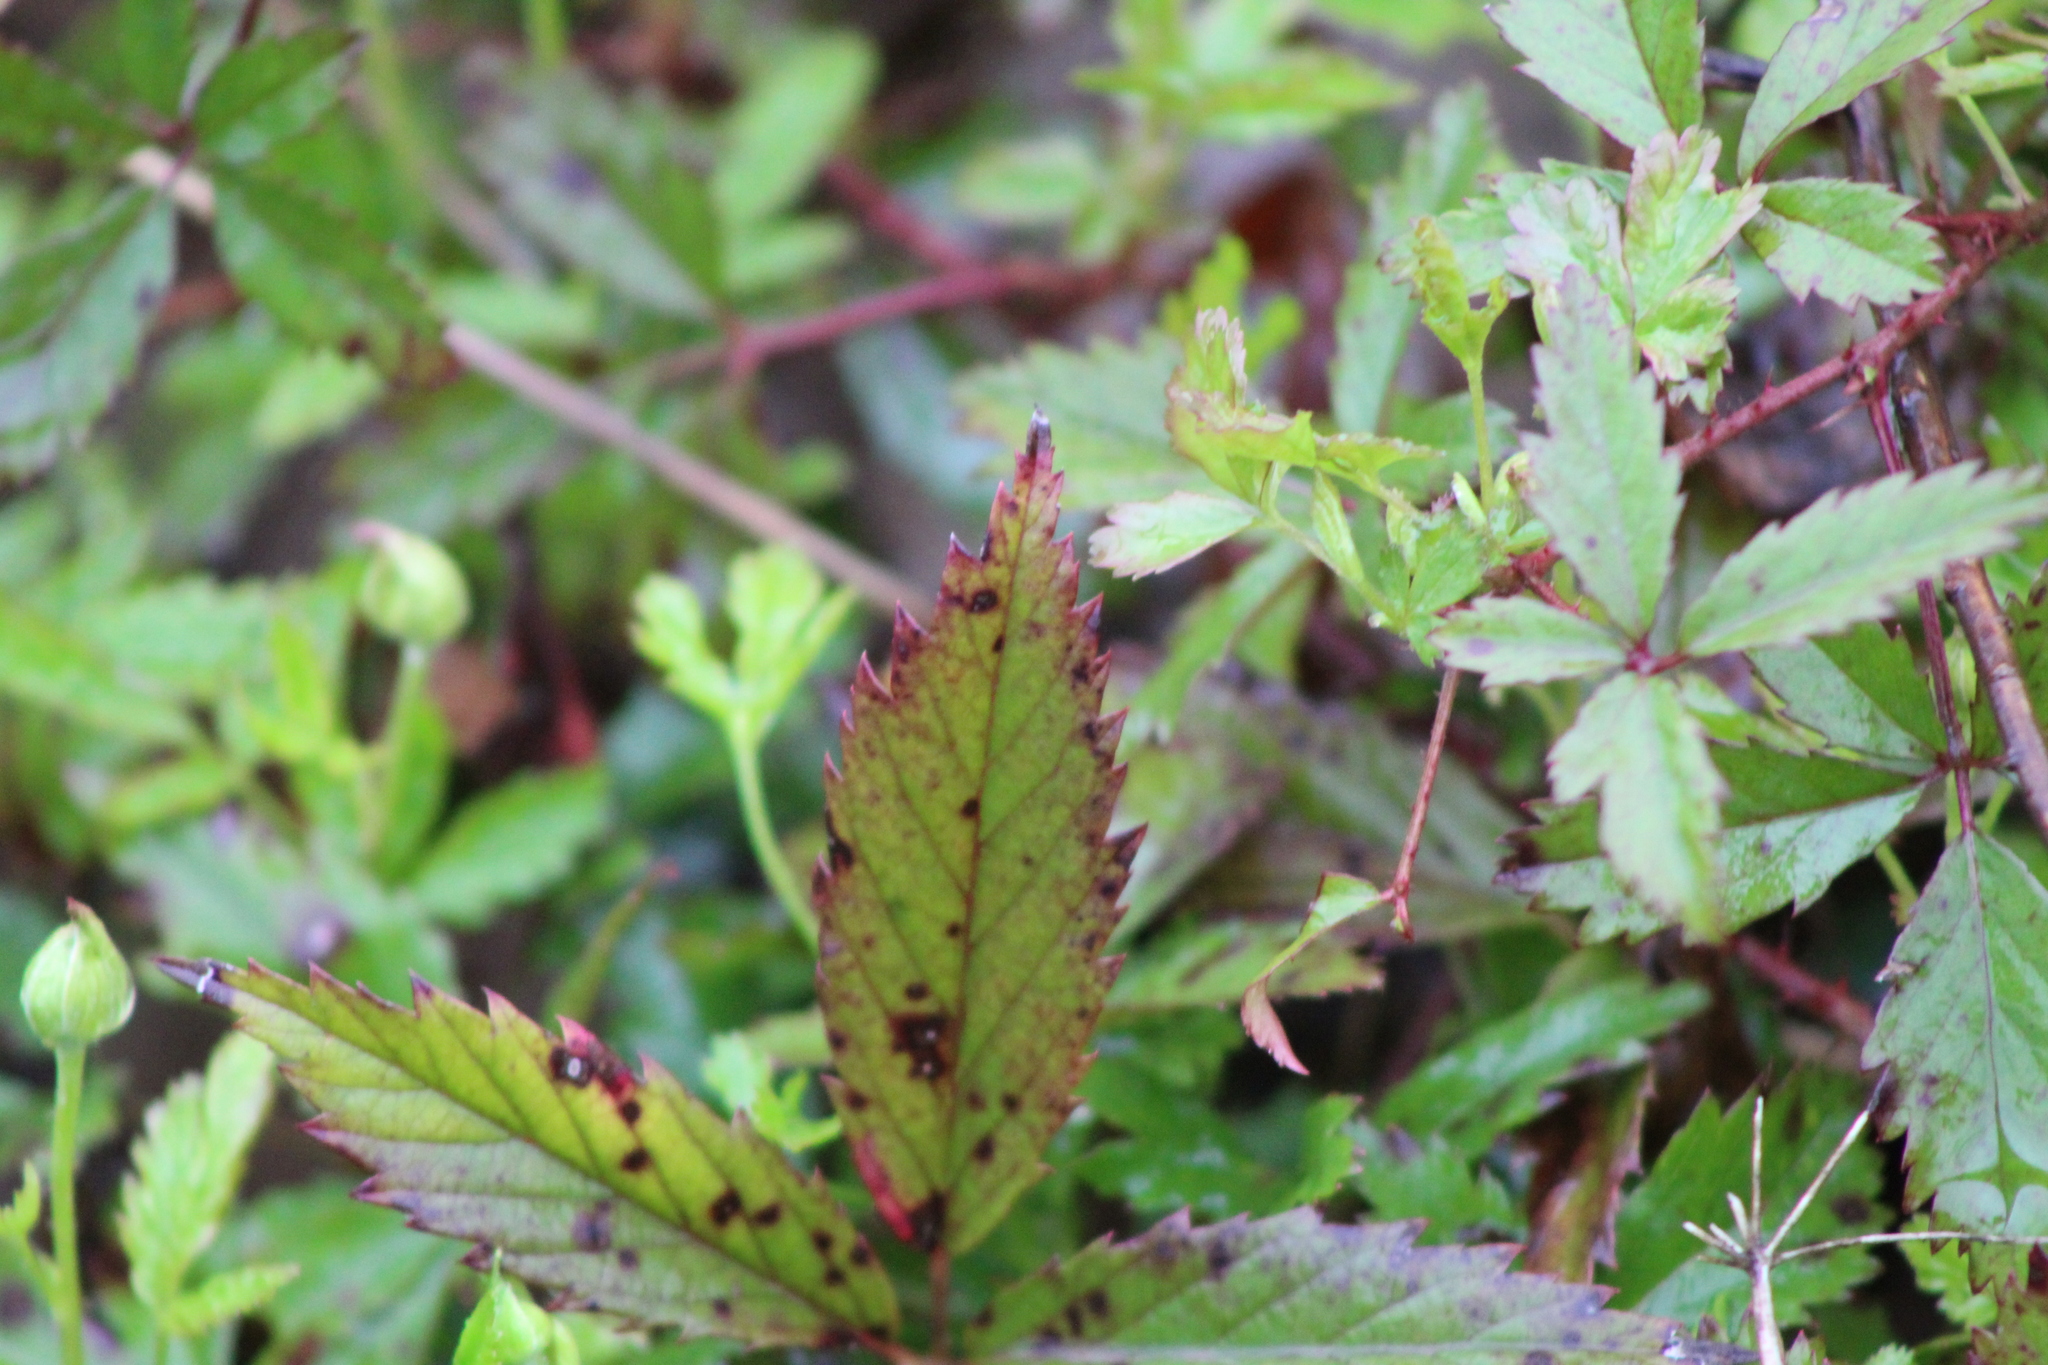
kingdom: Plantae
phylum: Tracheophyta
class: Magnoliopsida
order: Rosales
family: Rosaceae
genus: Rubus
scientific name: Rubus trivialis
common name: Southern dewberry
